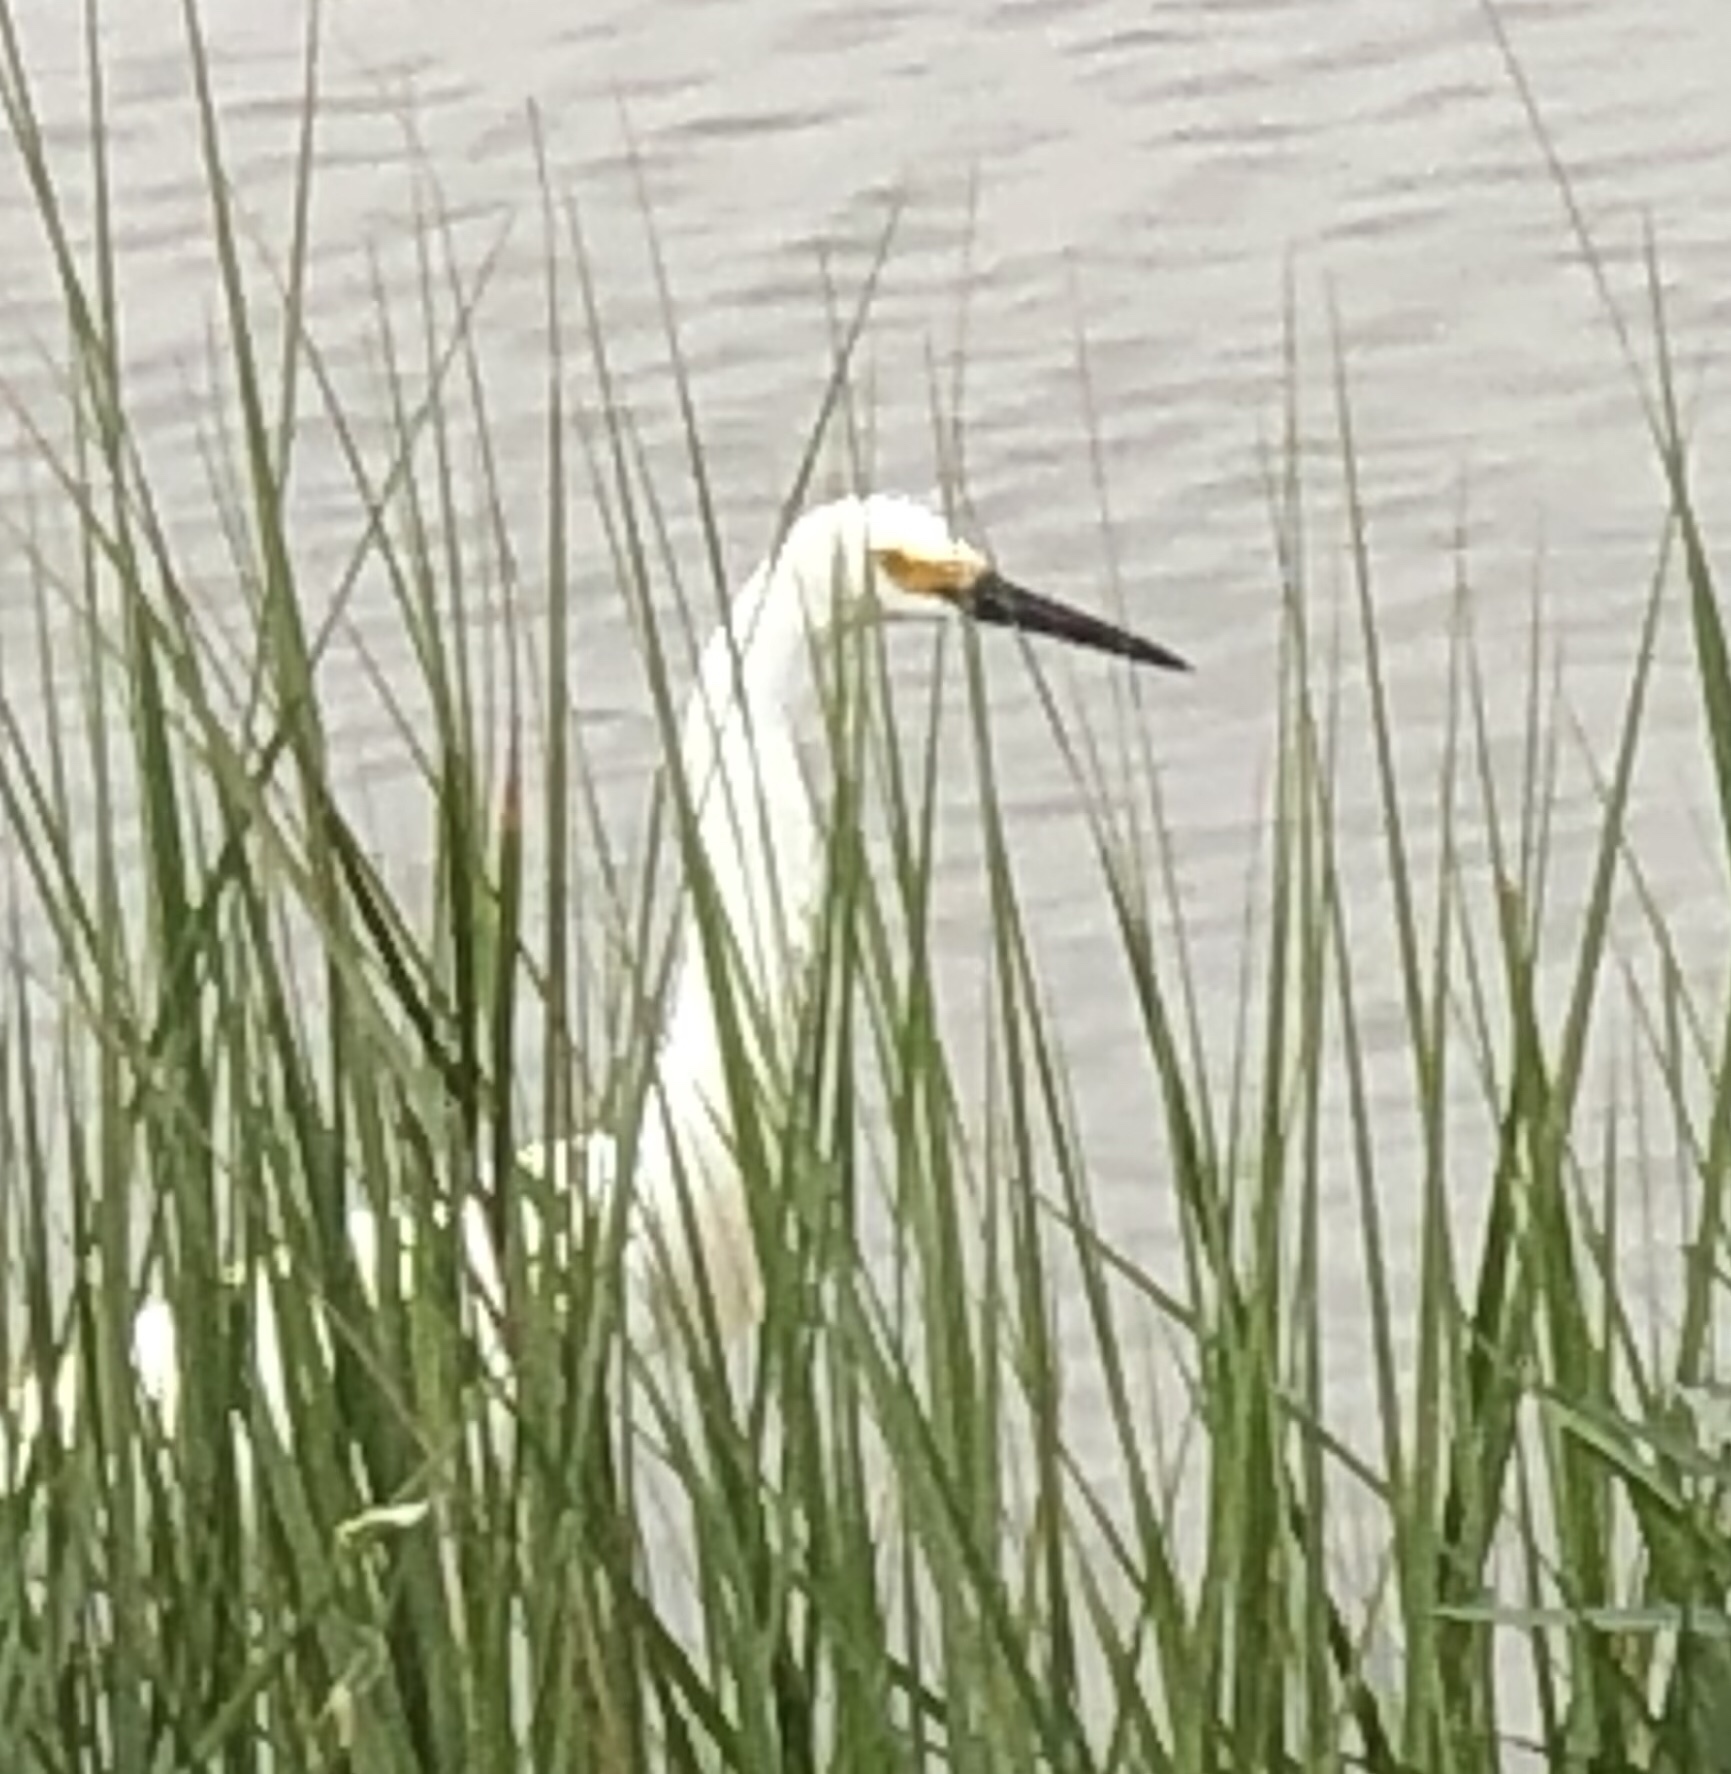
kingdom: Animalia
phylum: Chordata
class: Aves
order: Pelecaniformes
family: Ardeidae
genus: Egretta
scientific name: Egretta thula
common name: Snowy egret
